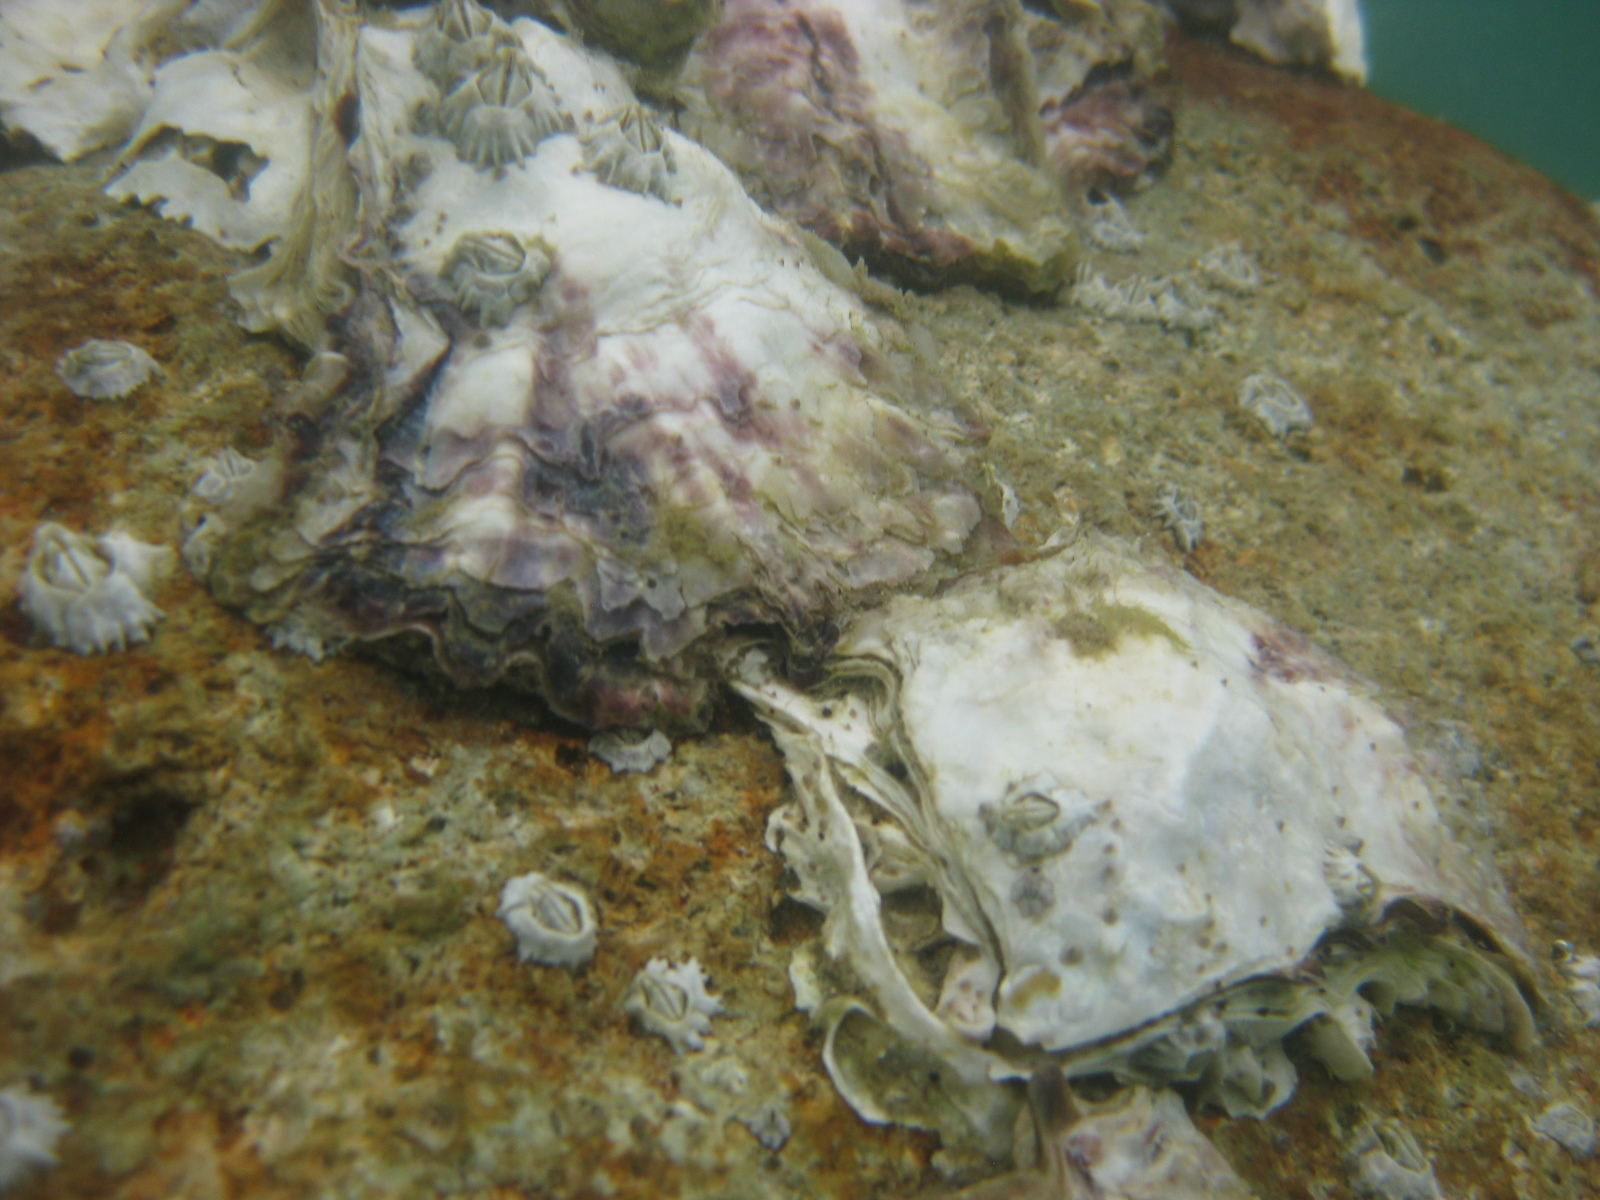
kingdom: Animalia
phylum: Arthropoda
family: Elminiidae
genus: Austrominius
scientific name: Austrominius modestus
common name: Australasian barnacle
